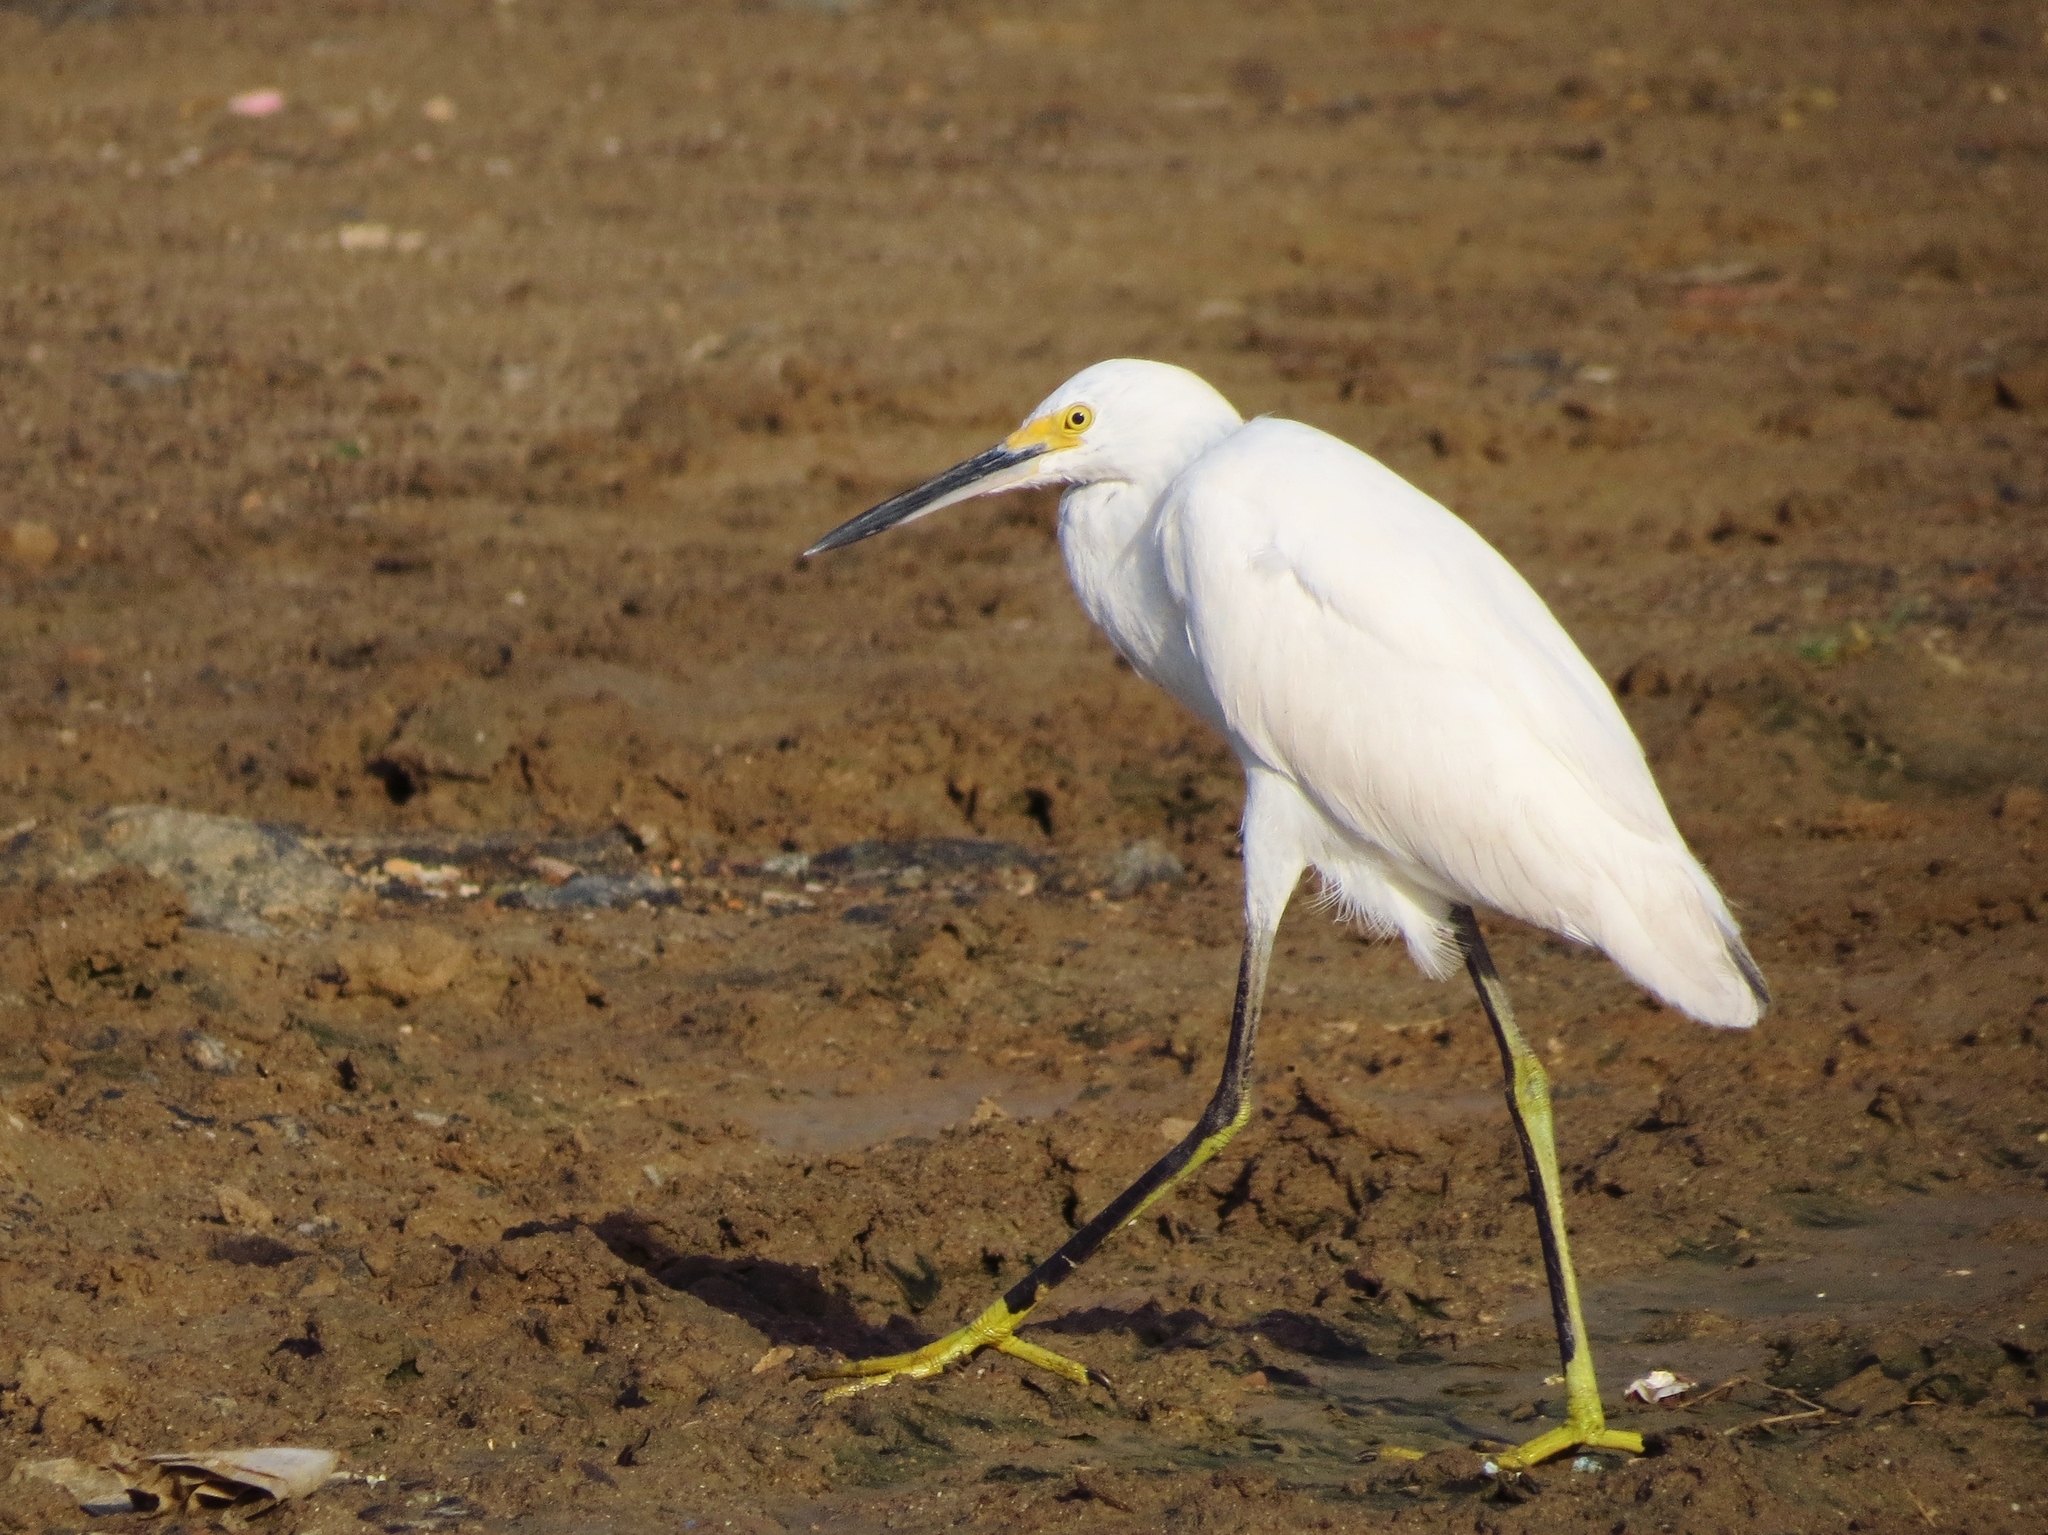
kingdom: Animalia
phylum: Chordata
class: Aves
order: Pelecaniformes
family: Ardeidae
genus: Egretta
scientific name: Egretta thula
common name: Snowy egret
